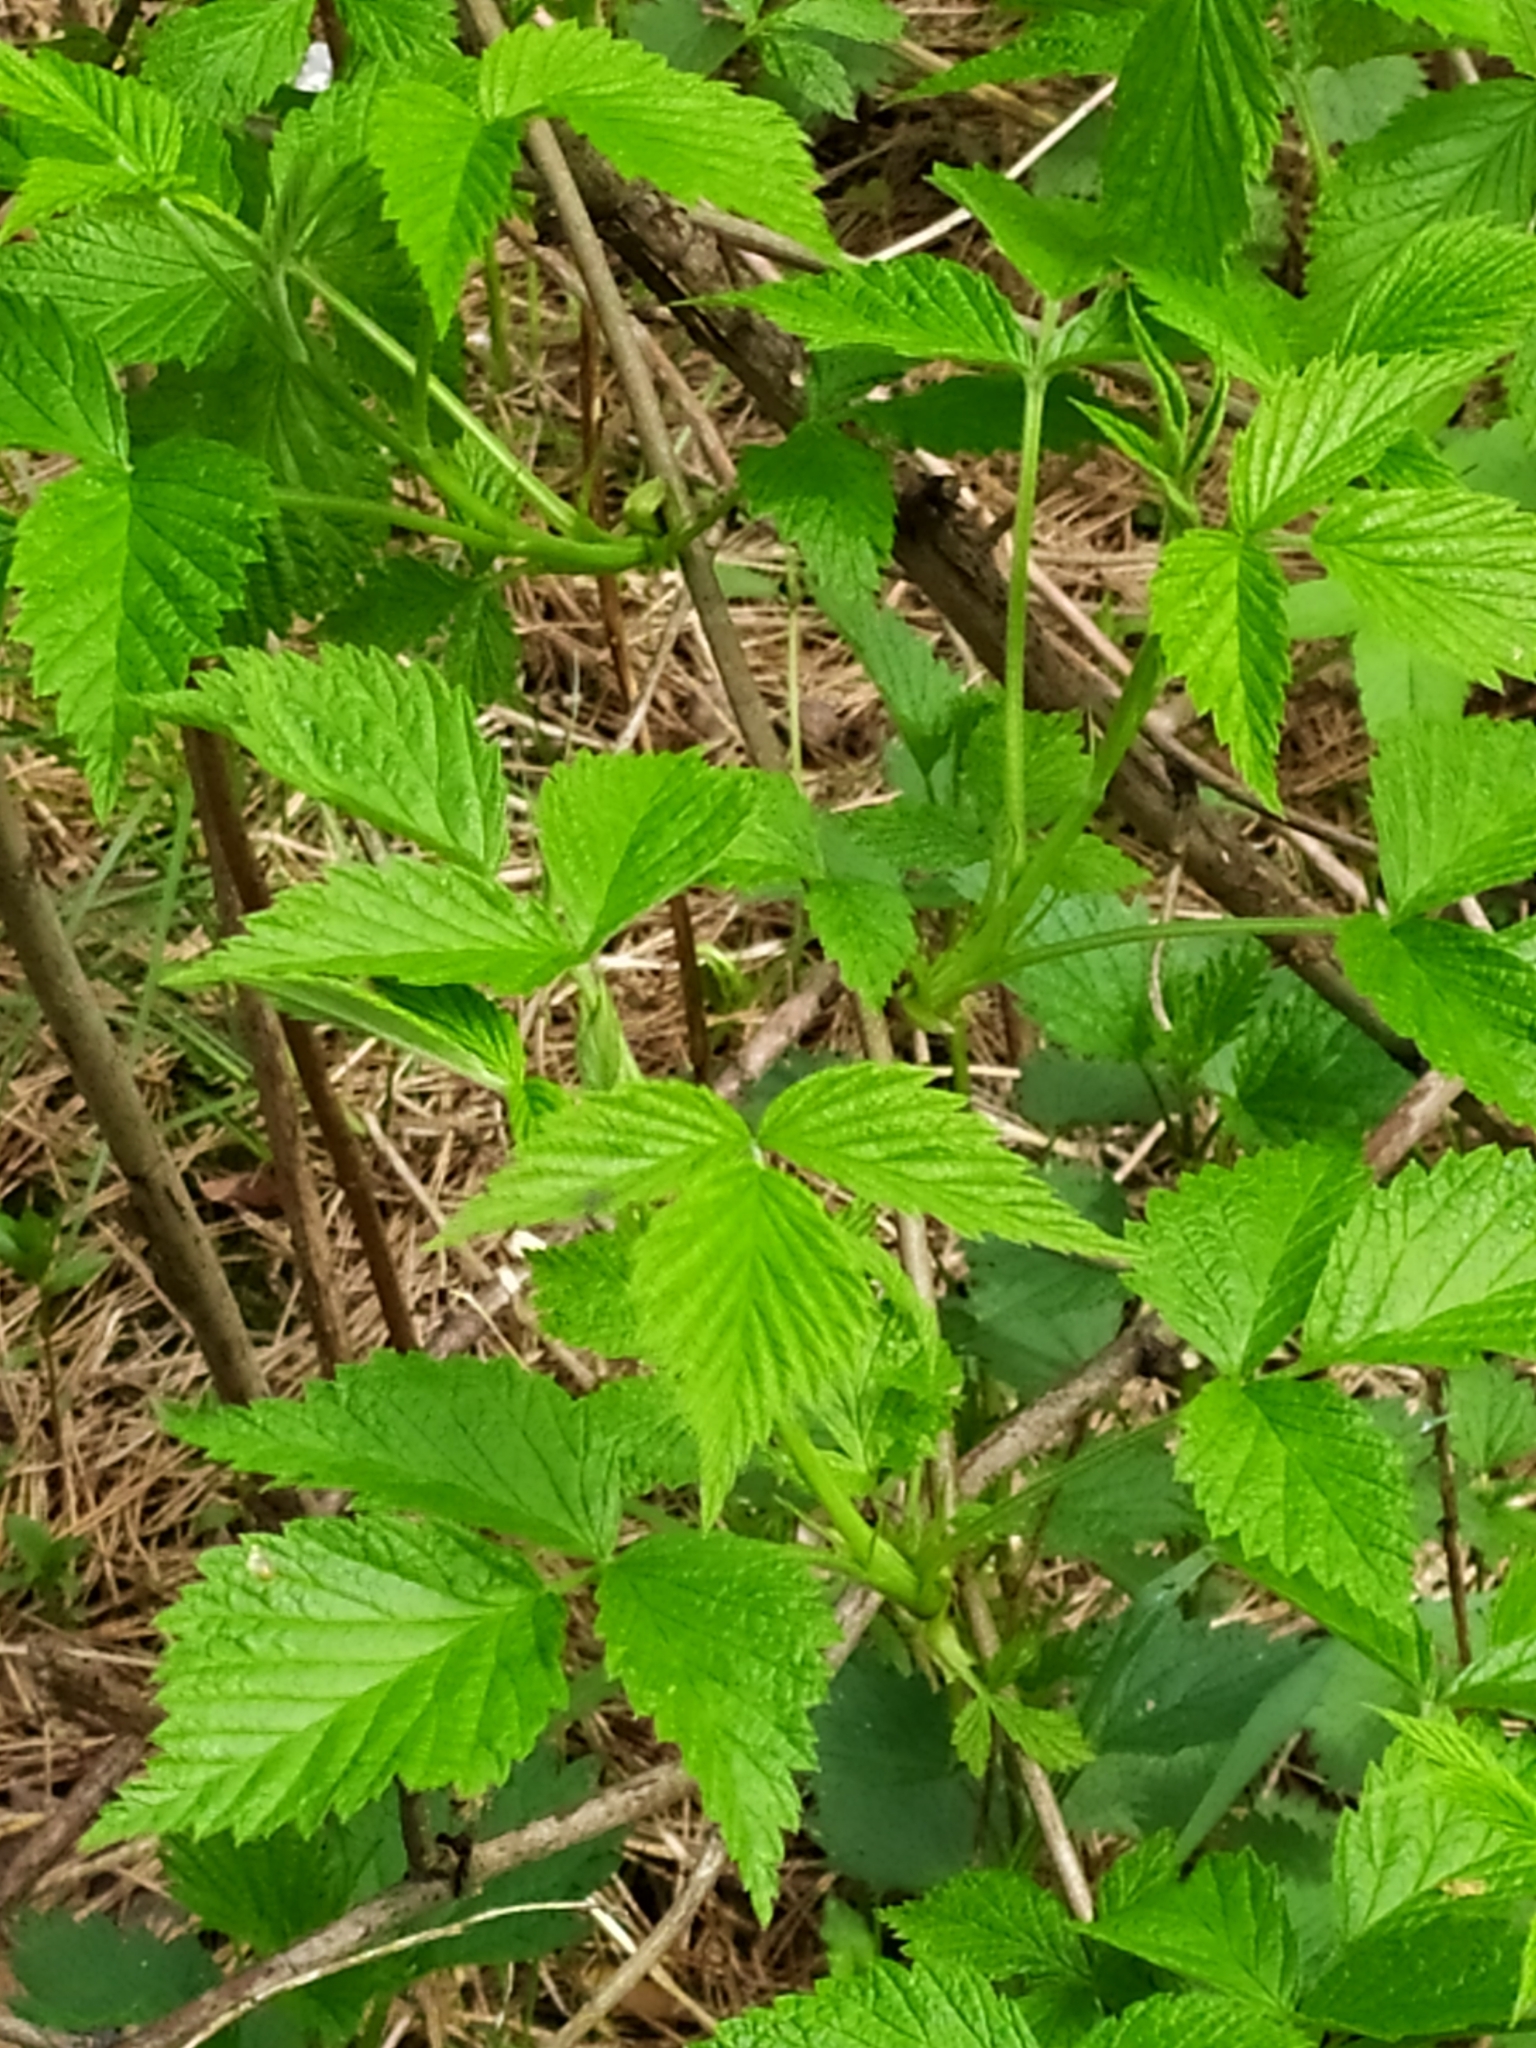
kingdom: Plantae
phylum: Tracheophyta
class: Magnoliopsida
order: Rosales
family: Rosaceae
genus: Rubus
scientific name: Rubus idaeus
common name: Raspberry
